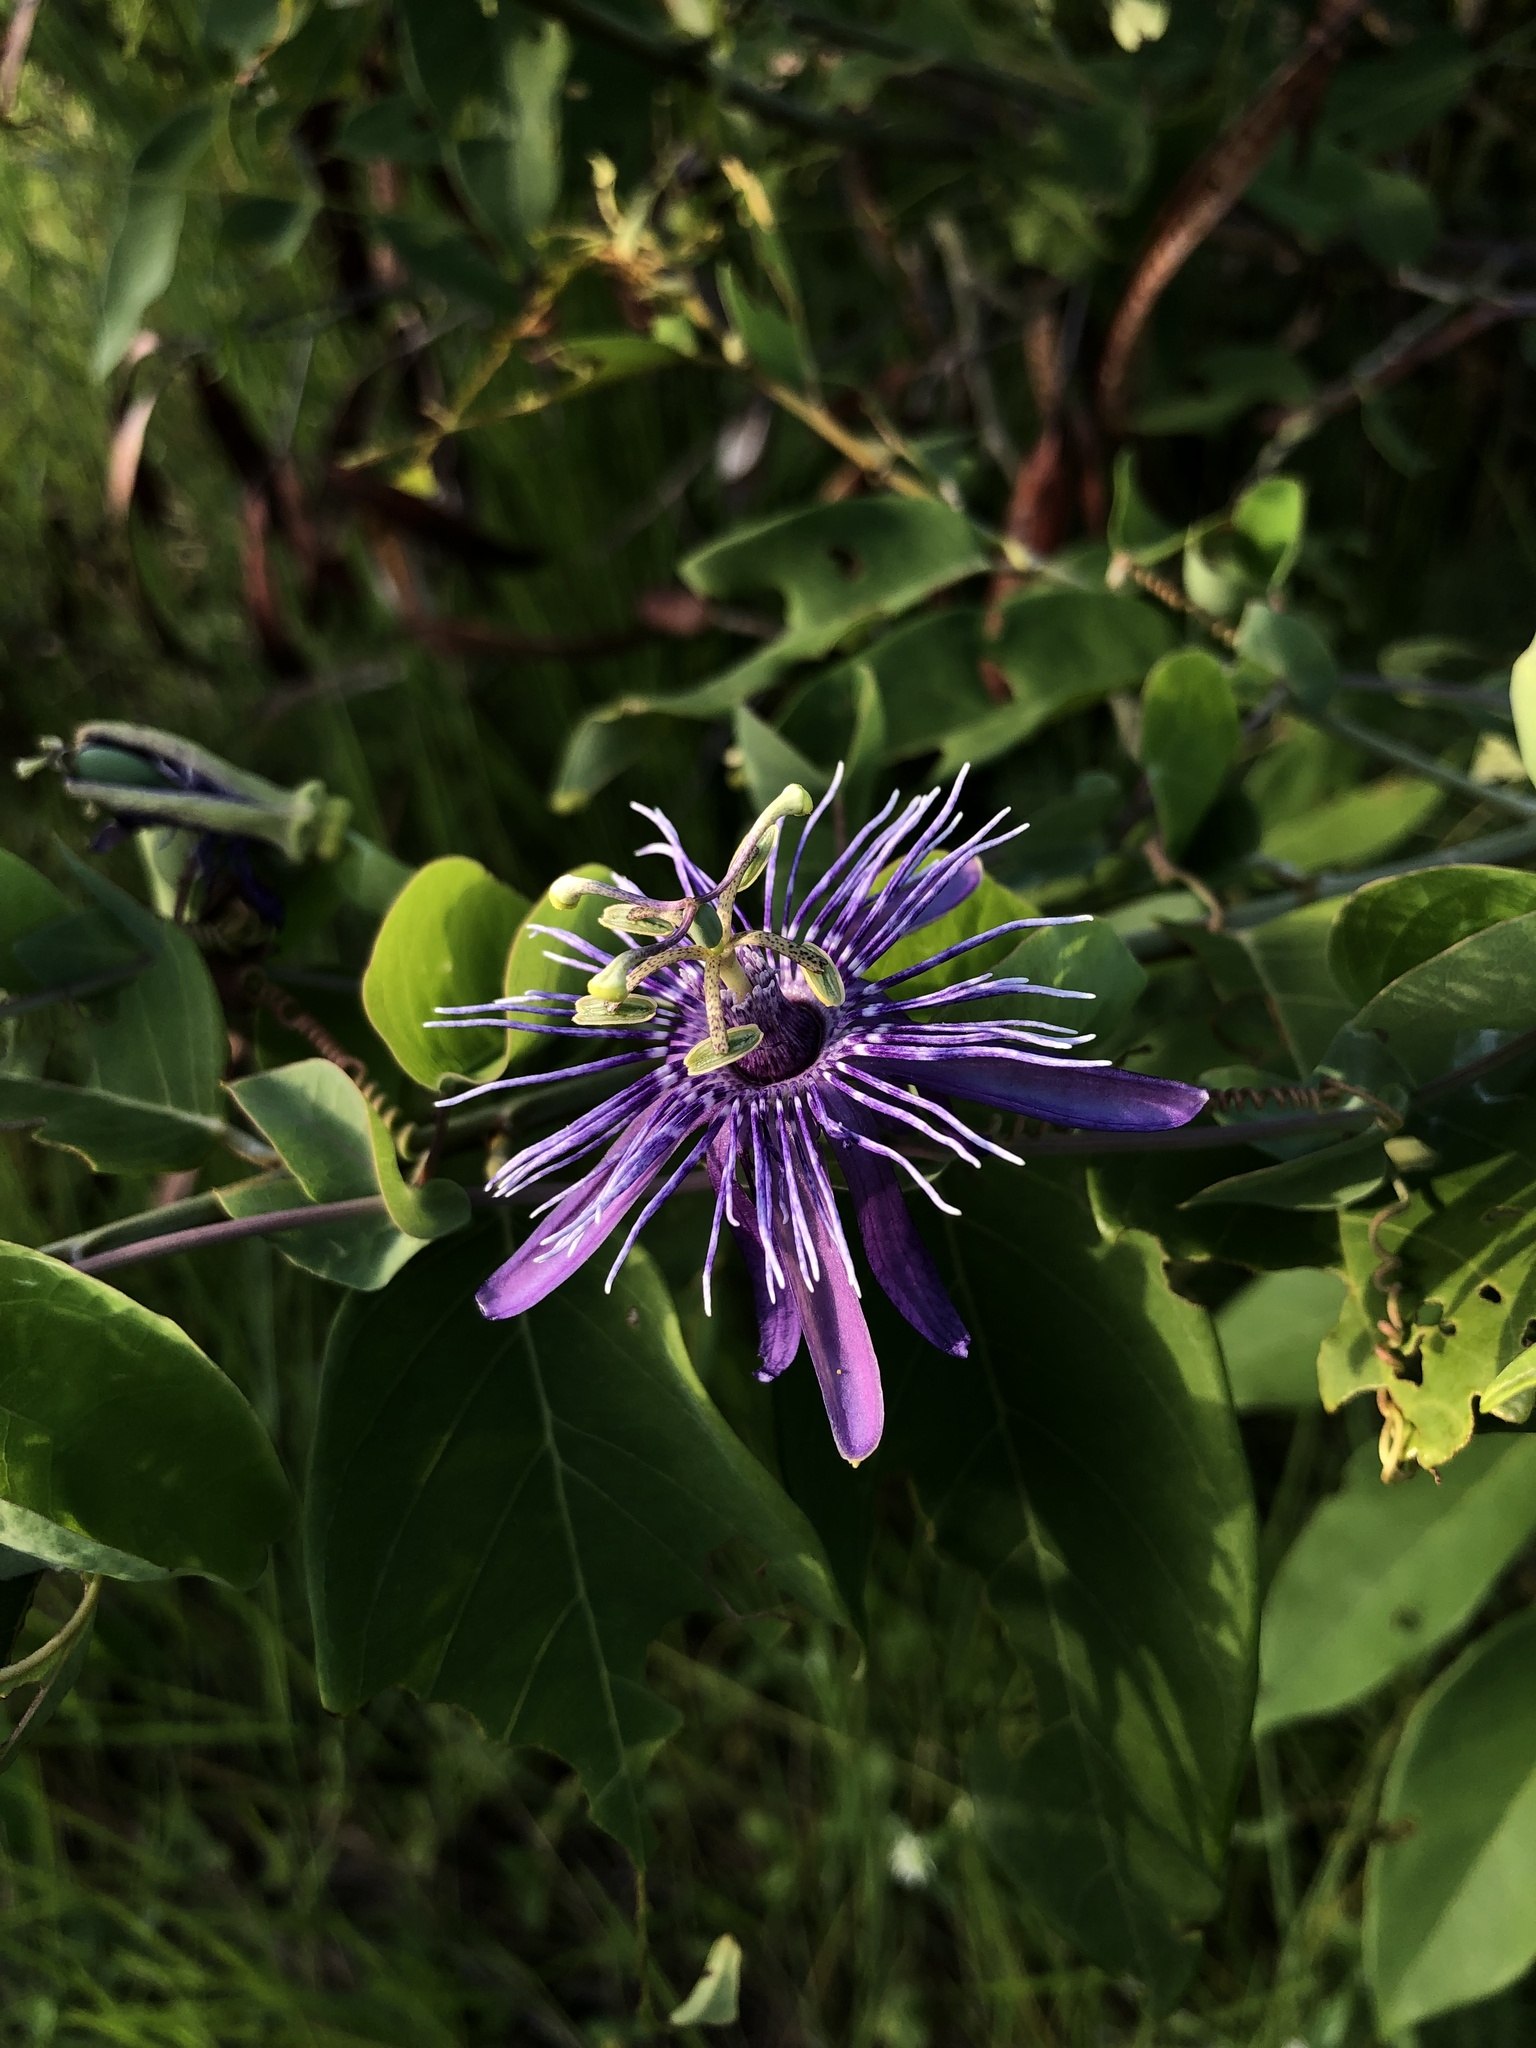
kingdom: Plantae
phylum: Tracheophyta
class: Magnoliopsida
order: Malpighiales
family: Passifloraceae
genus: Passiflora
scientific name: Passiflora subrotunda
